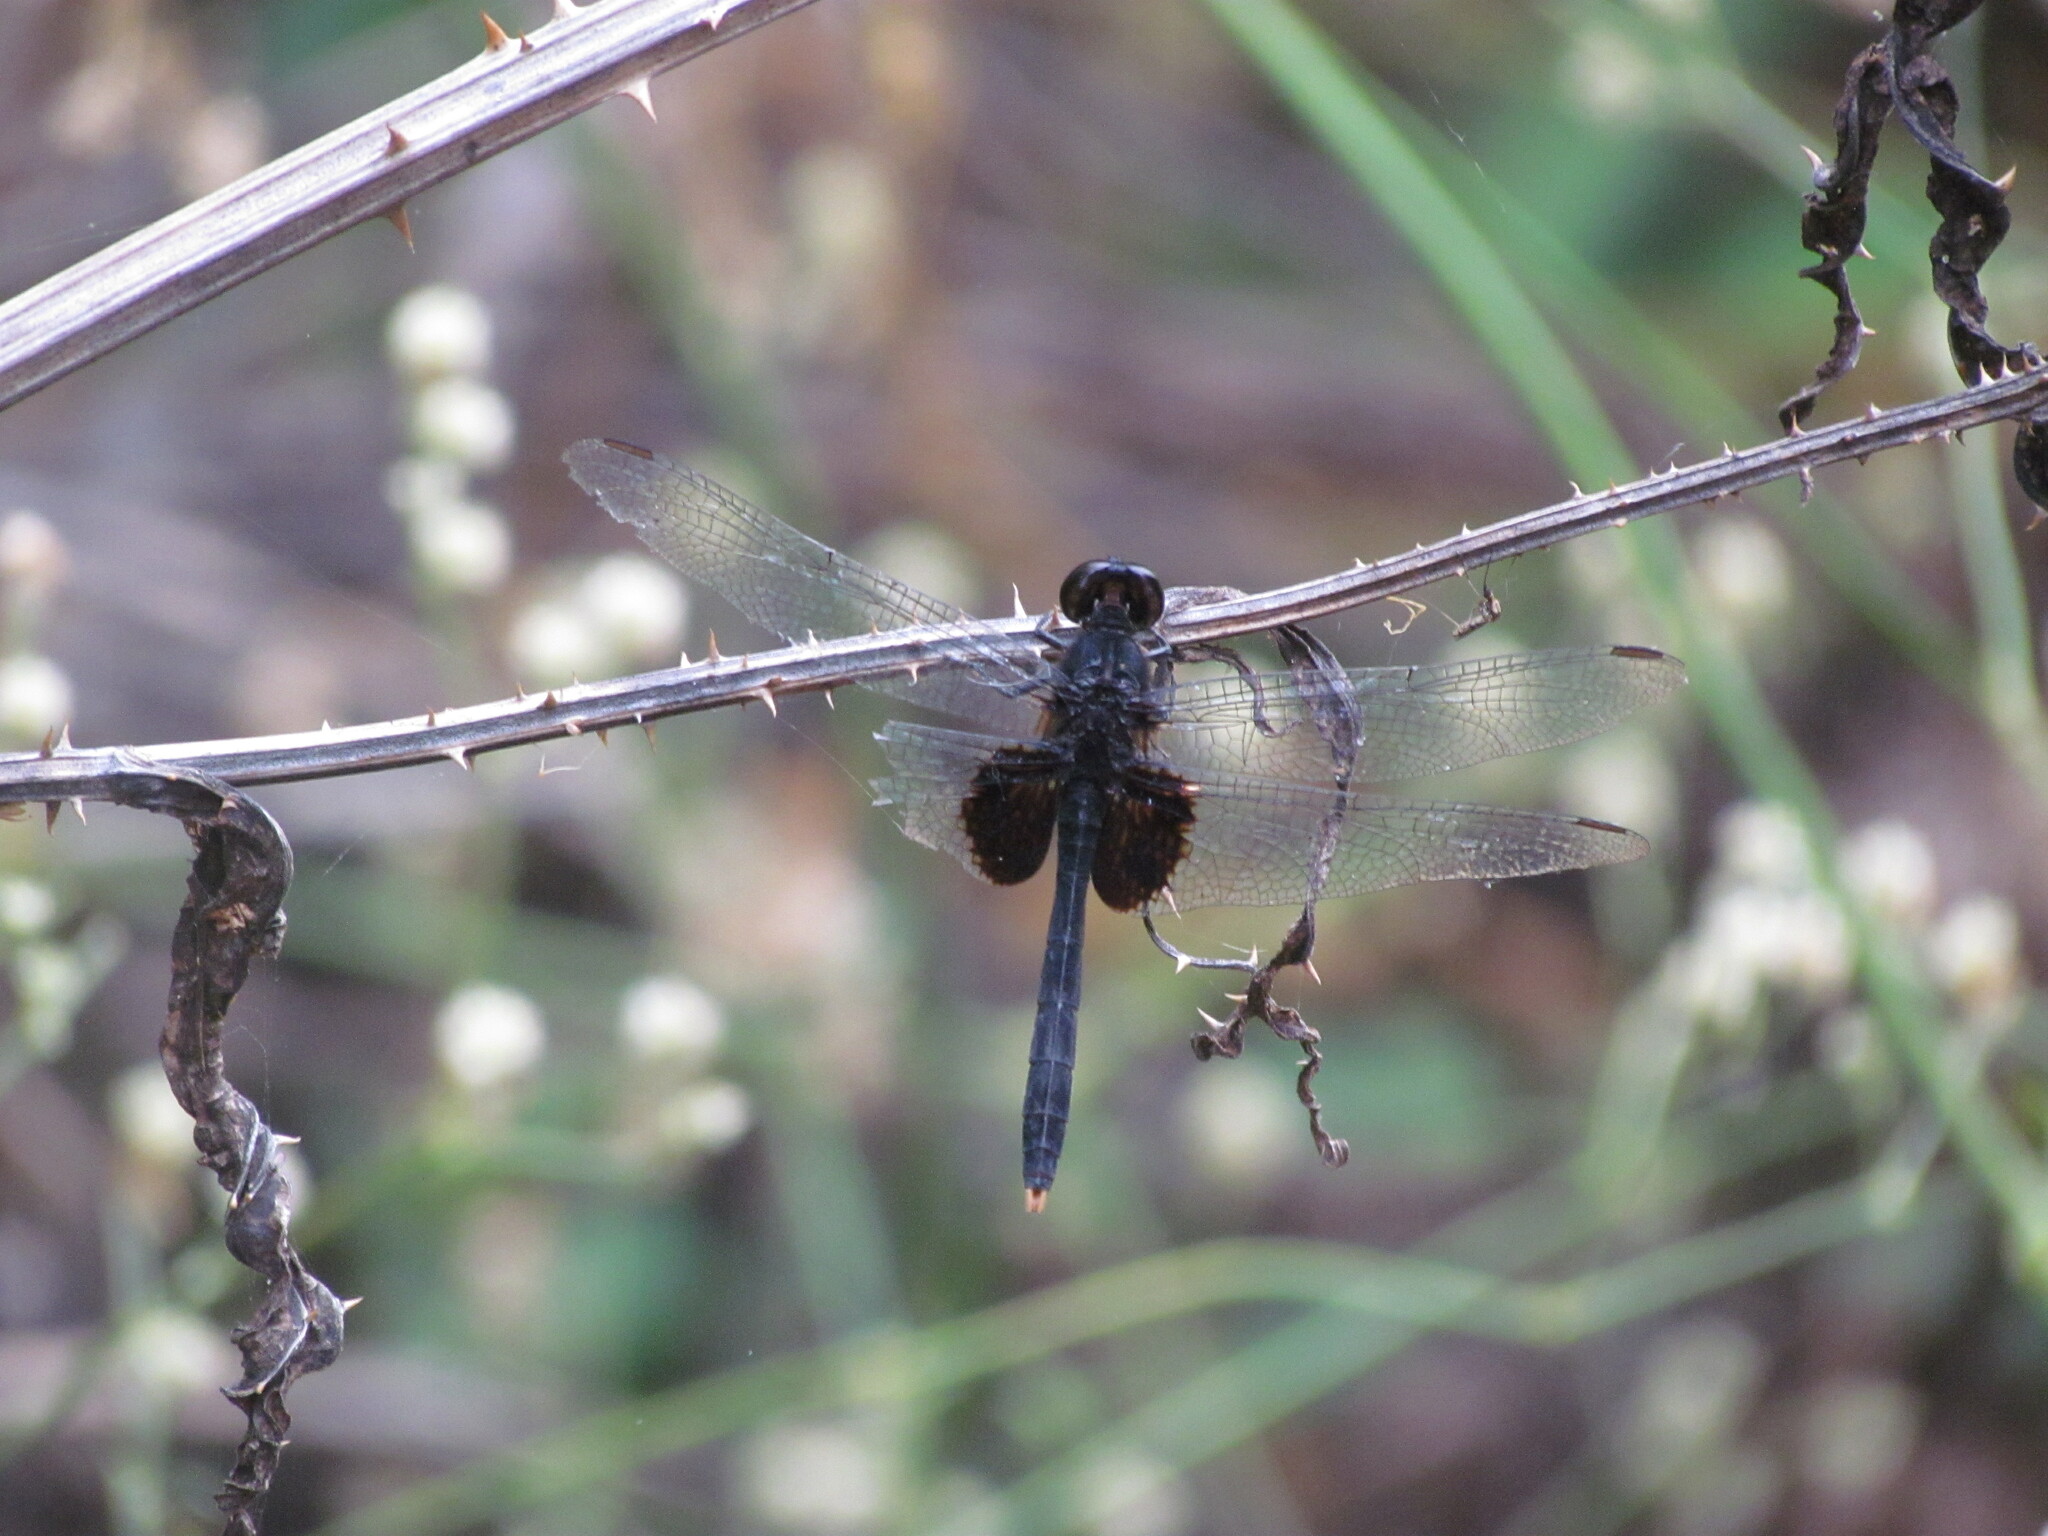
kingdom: Animalia
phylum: Arthropoda
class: Insecta
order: Odonata
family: Libellulidae
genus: Erythemis
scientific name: Erythemis attala
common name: Black pondhawk
